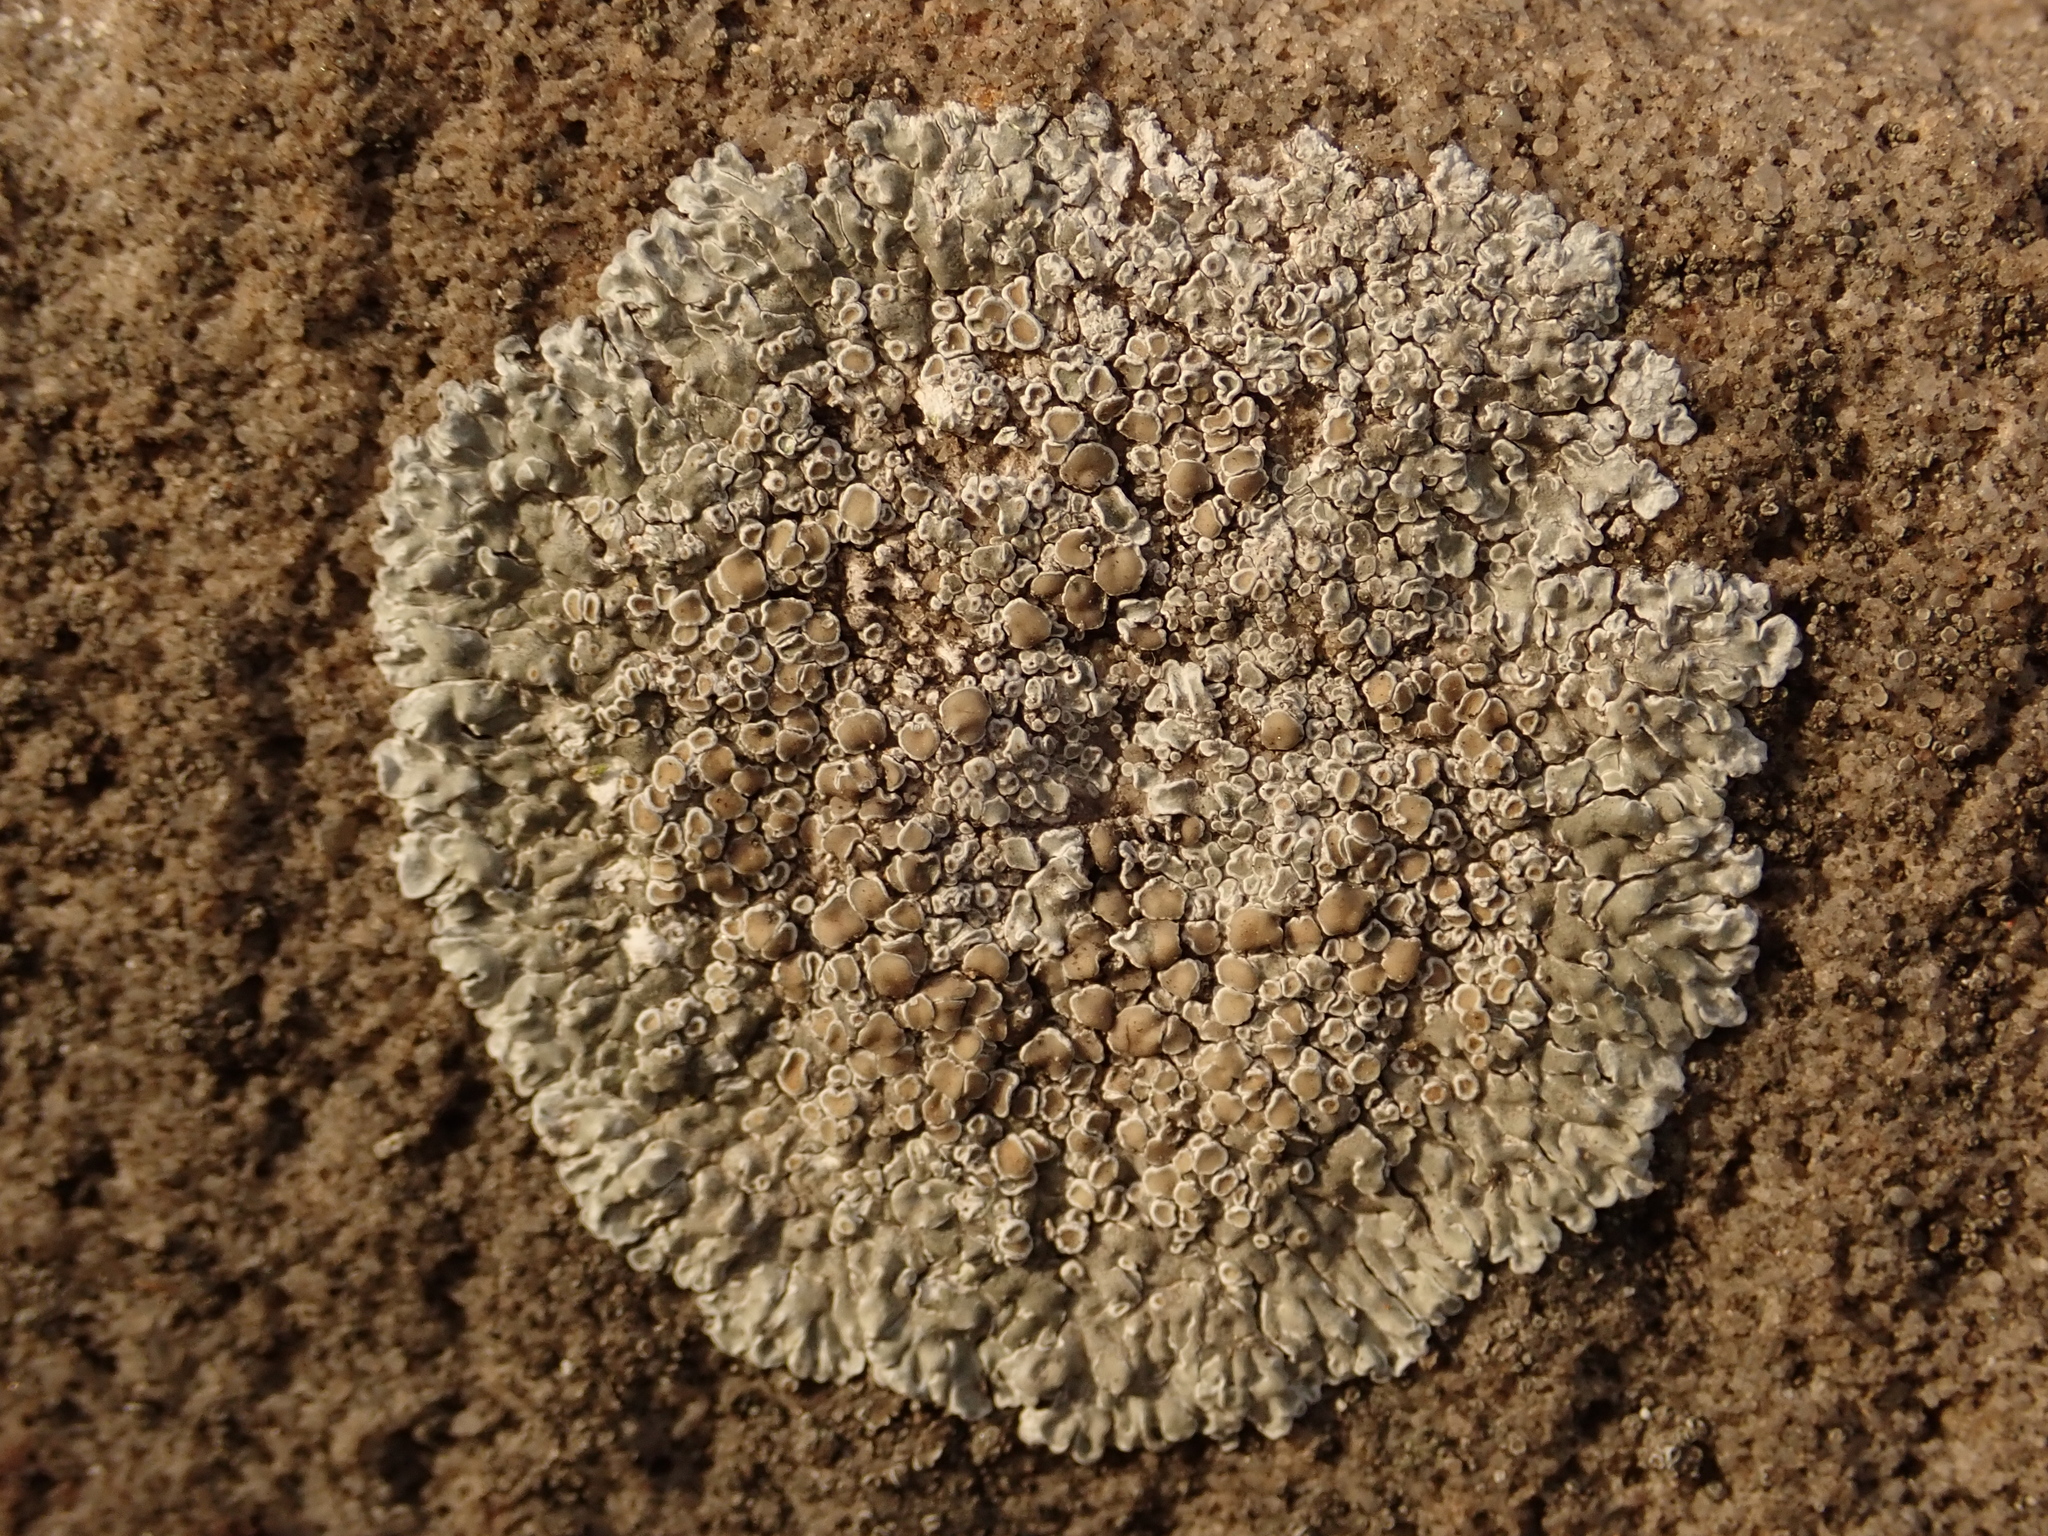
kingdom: Fungi
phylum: Ascomycota
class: Lecanoromycetes
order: Lecanorales
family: Lecanoraceae
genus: Protoparmeliopsis
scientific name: Protoparmeliopsis muralis
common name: Stonewall rim lichen
